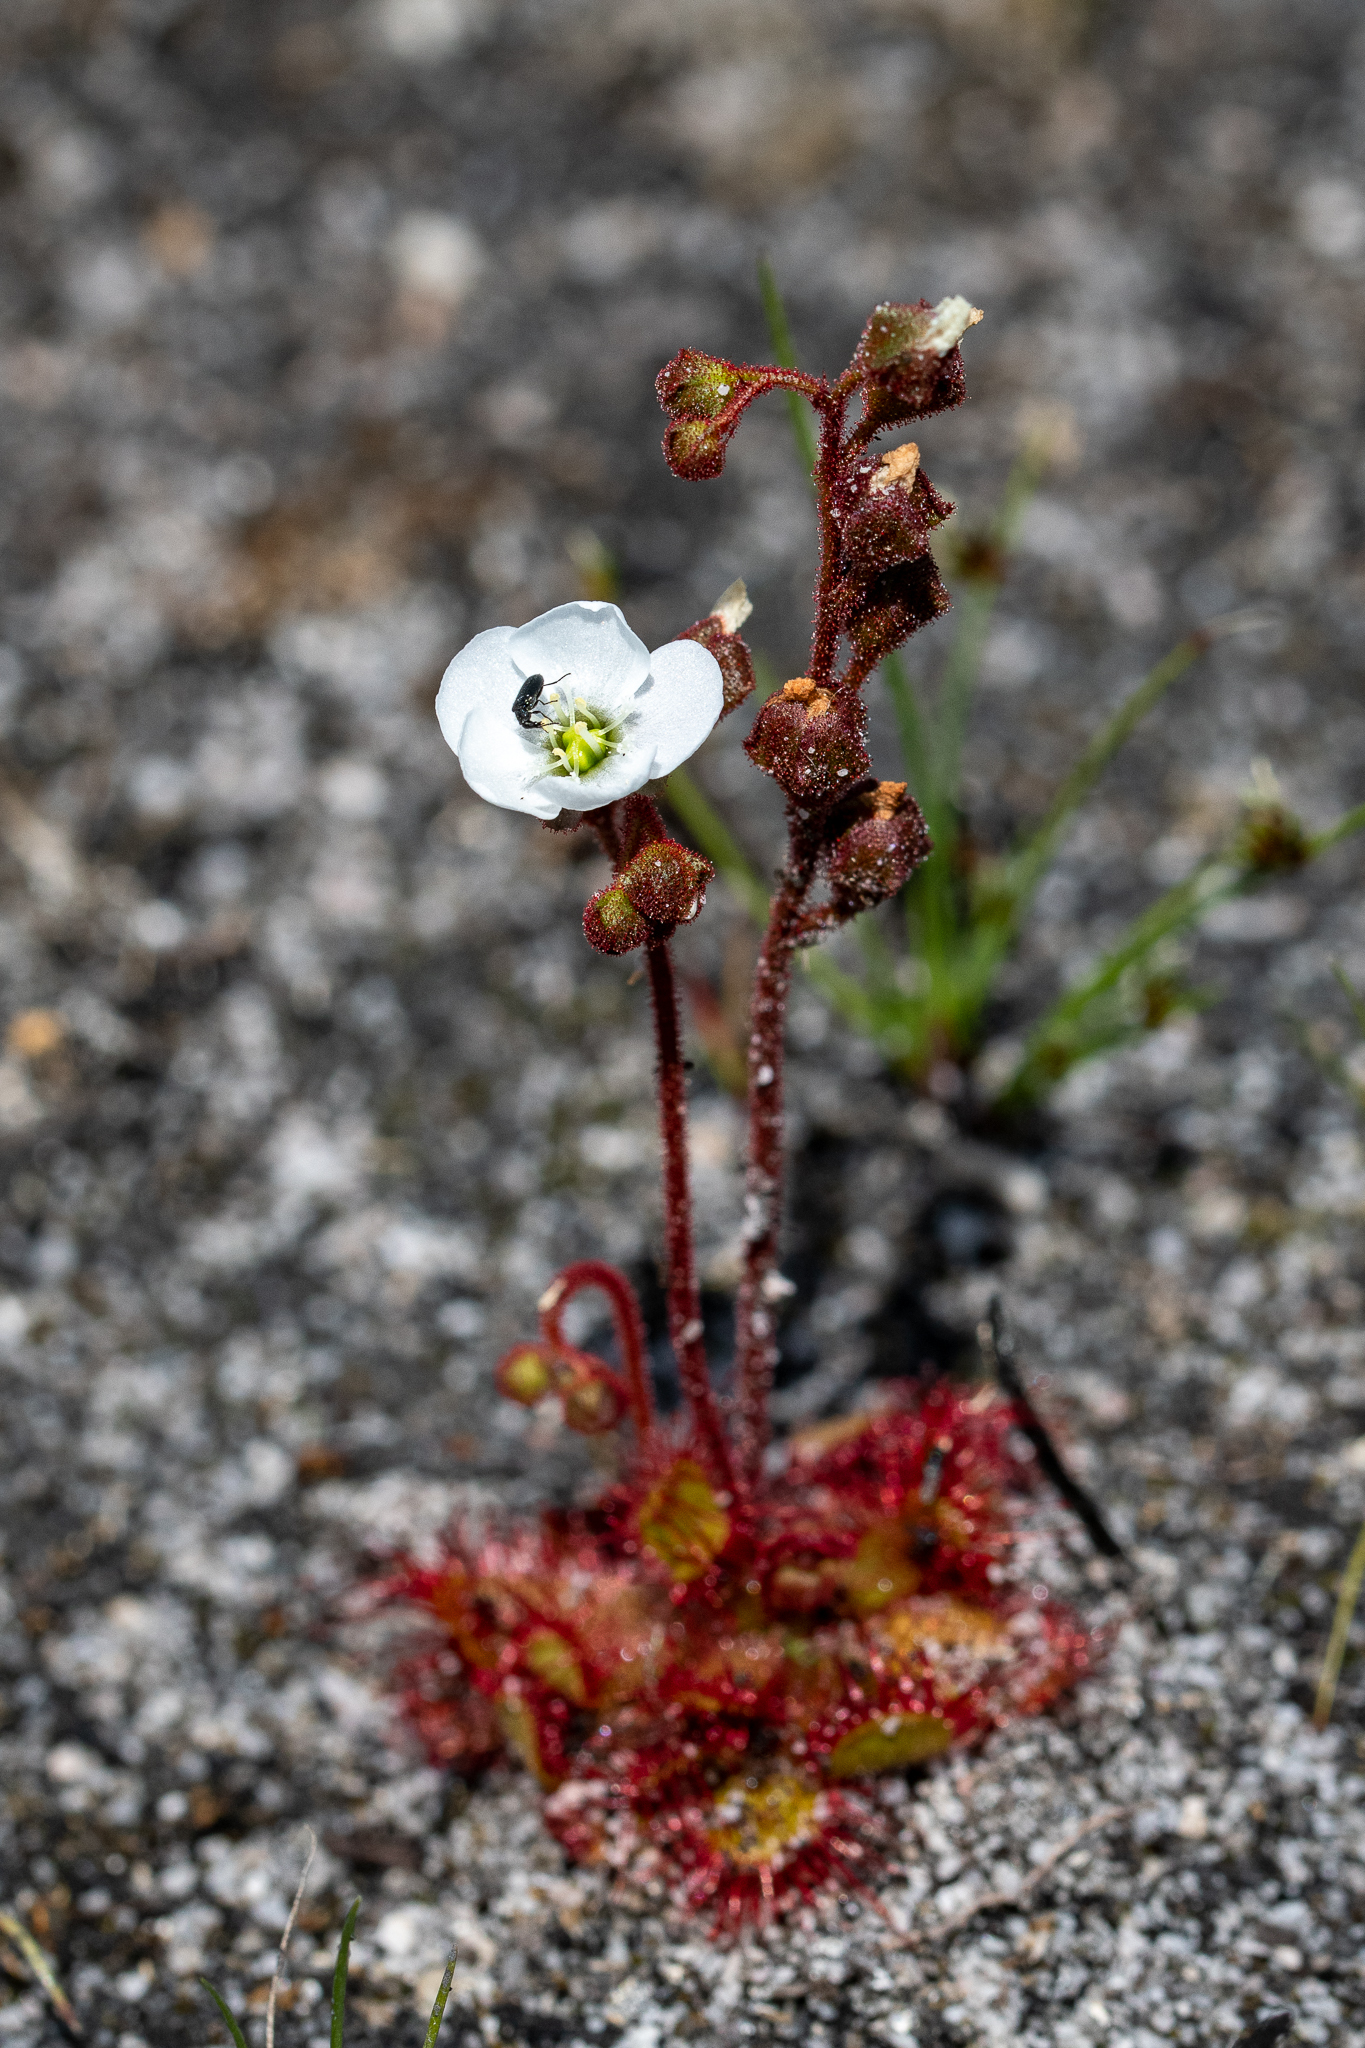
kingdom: Plantae
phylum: Tracheophyta
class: Magnoliopsida
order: Caryophyllales
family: Droseraceae
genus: Drosera
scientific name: Drosera trinervia
